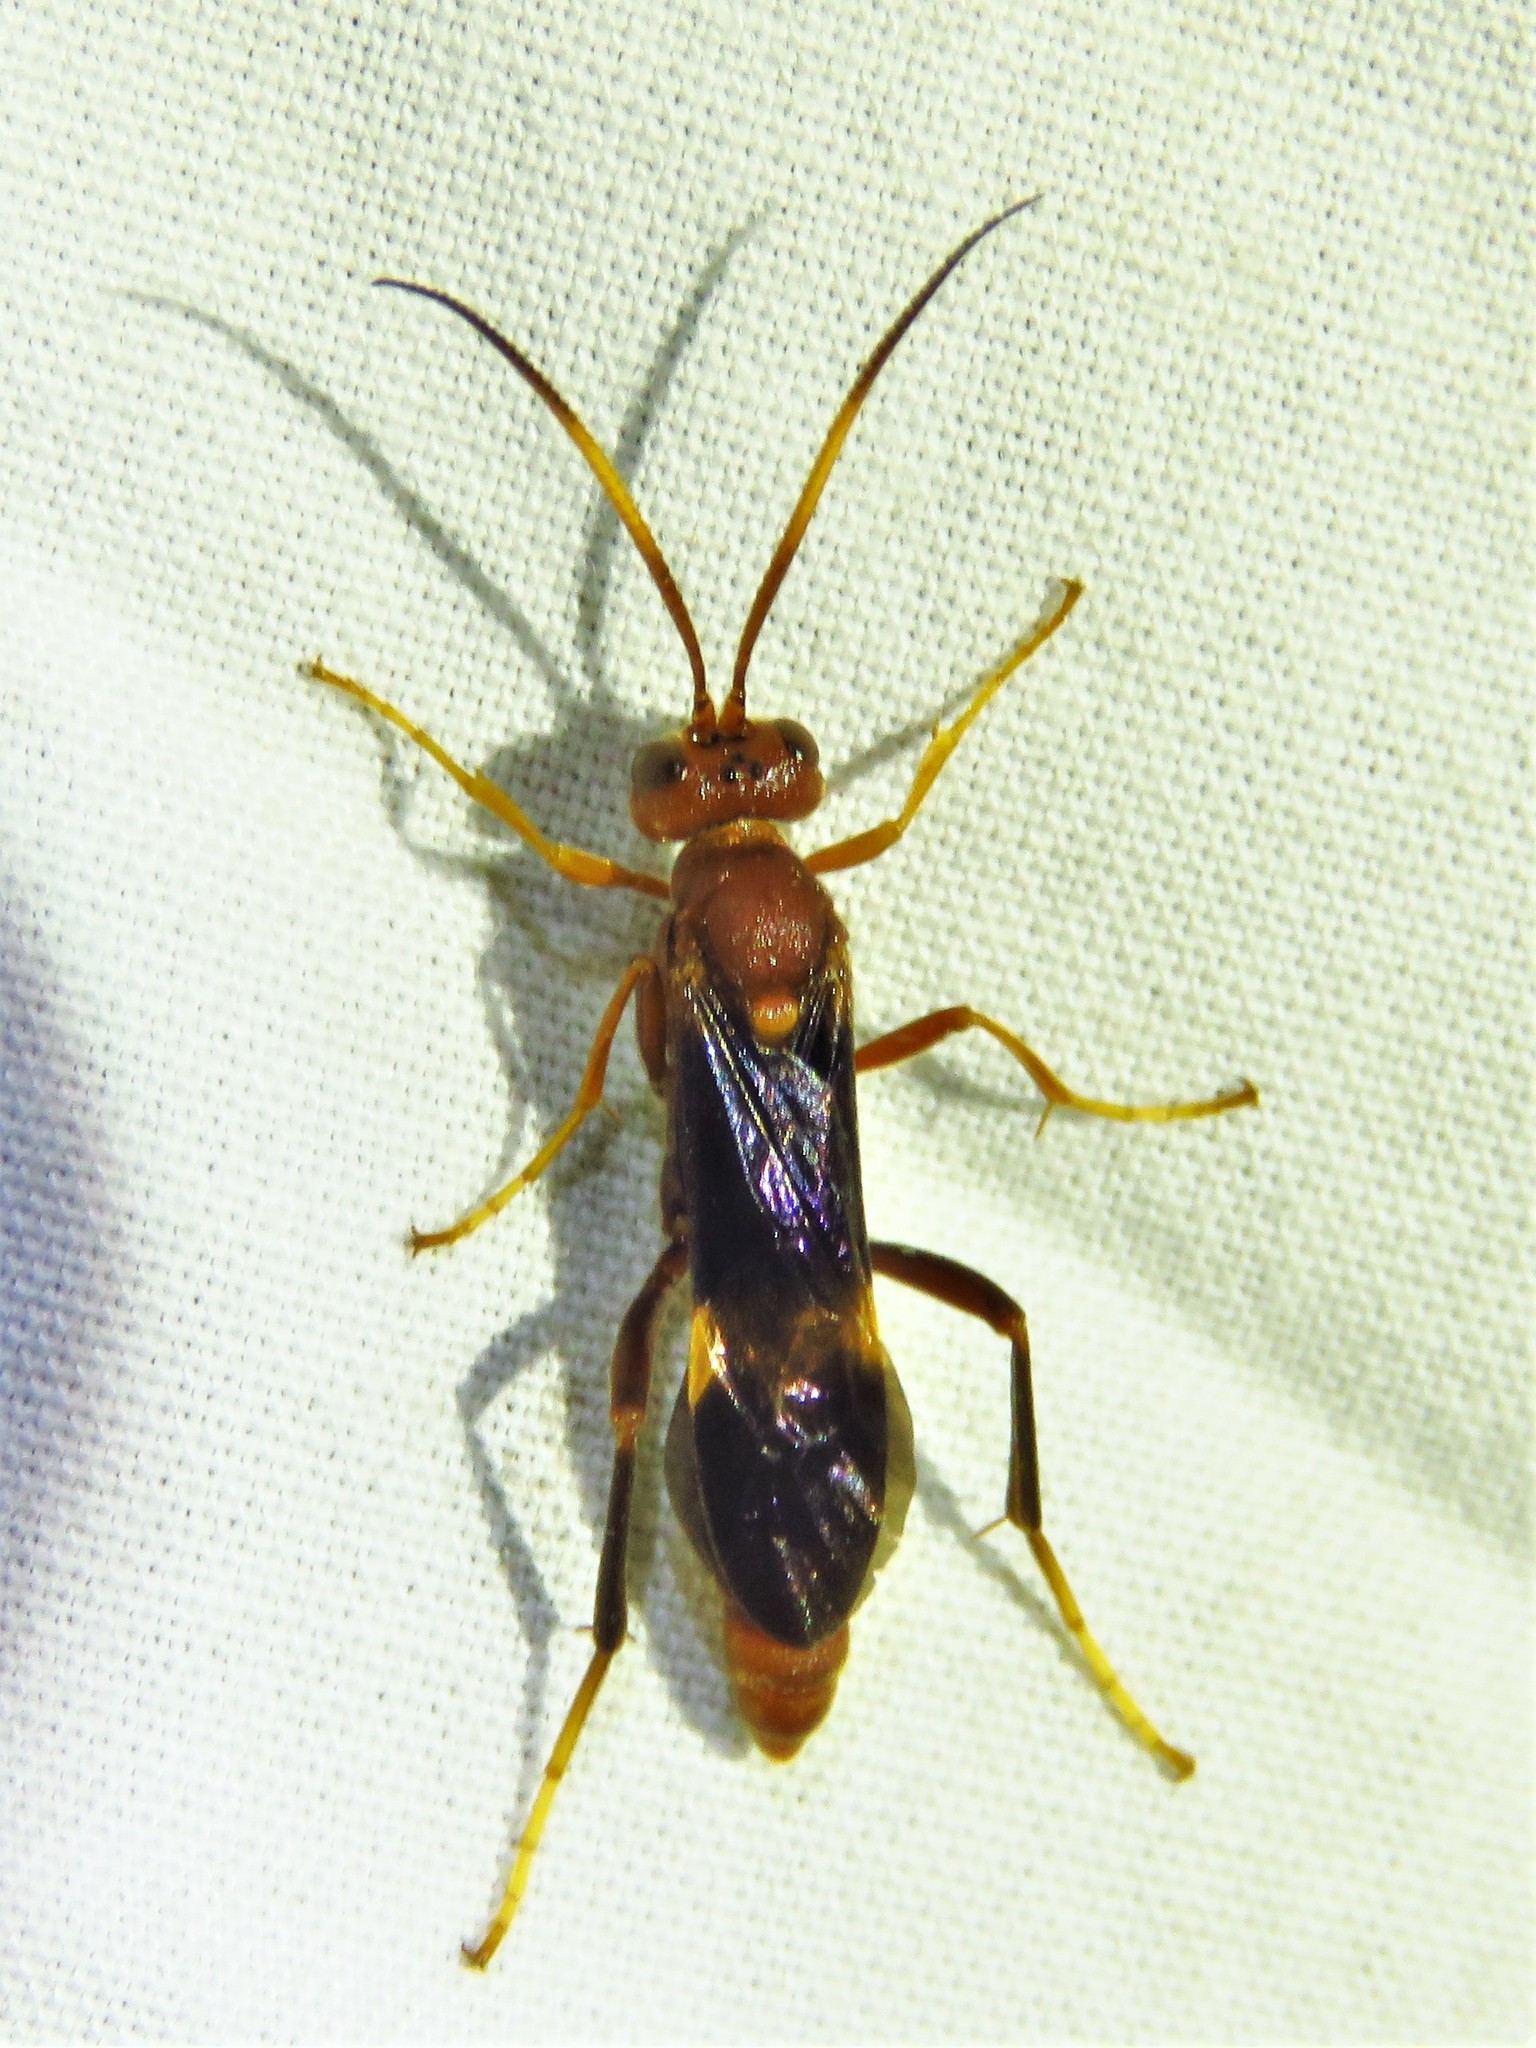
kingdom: Animalia
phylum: Arthropoda
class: Insecta
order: Hymenoptera
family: Ichneumonidae
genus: Trogomorpha
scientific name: Trogomorpha arrogans
